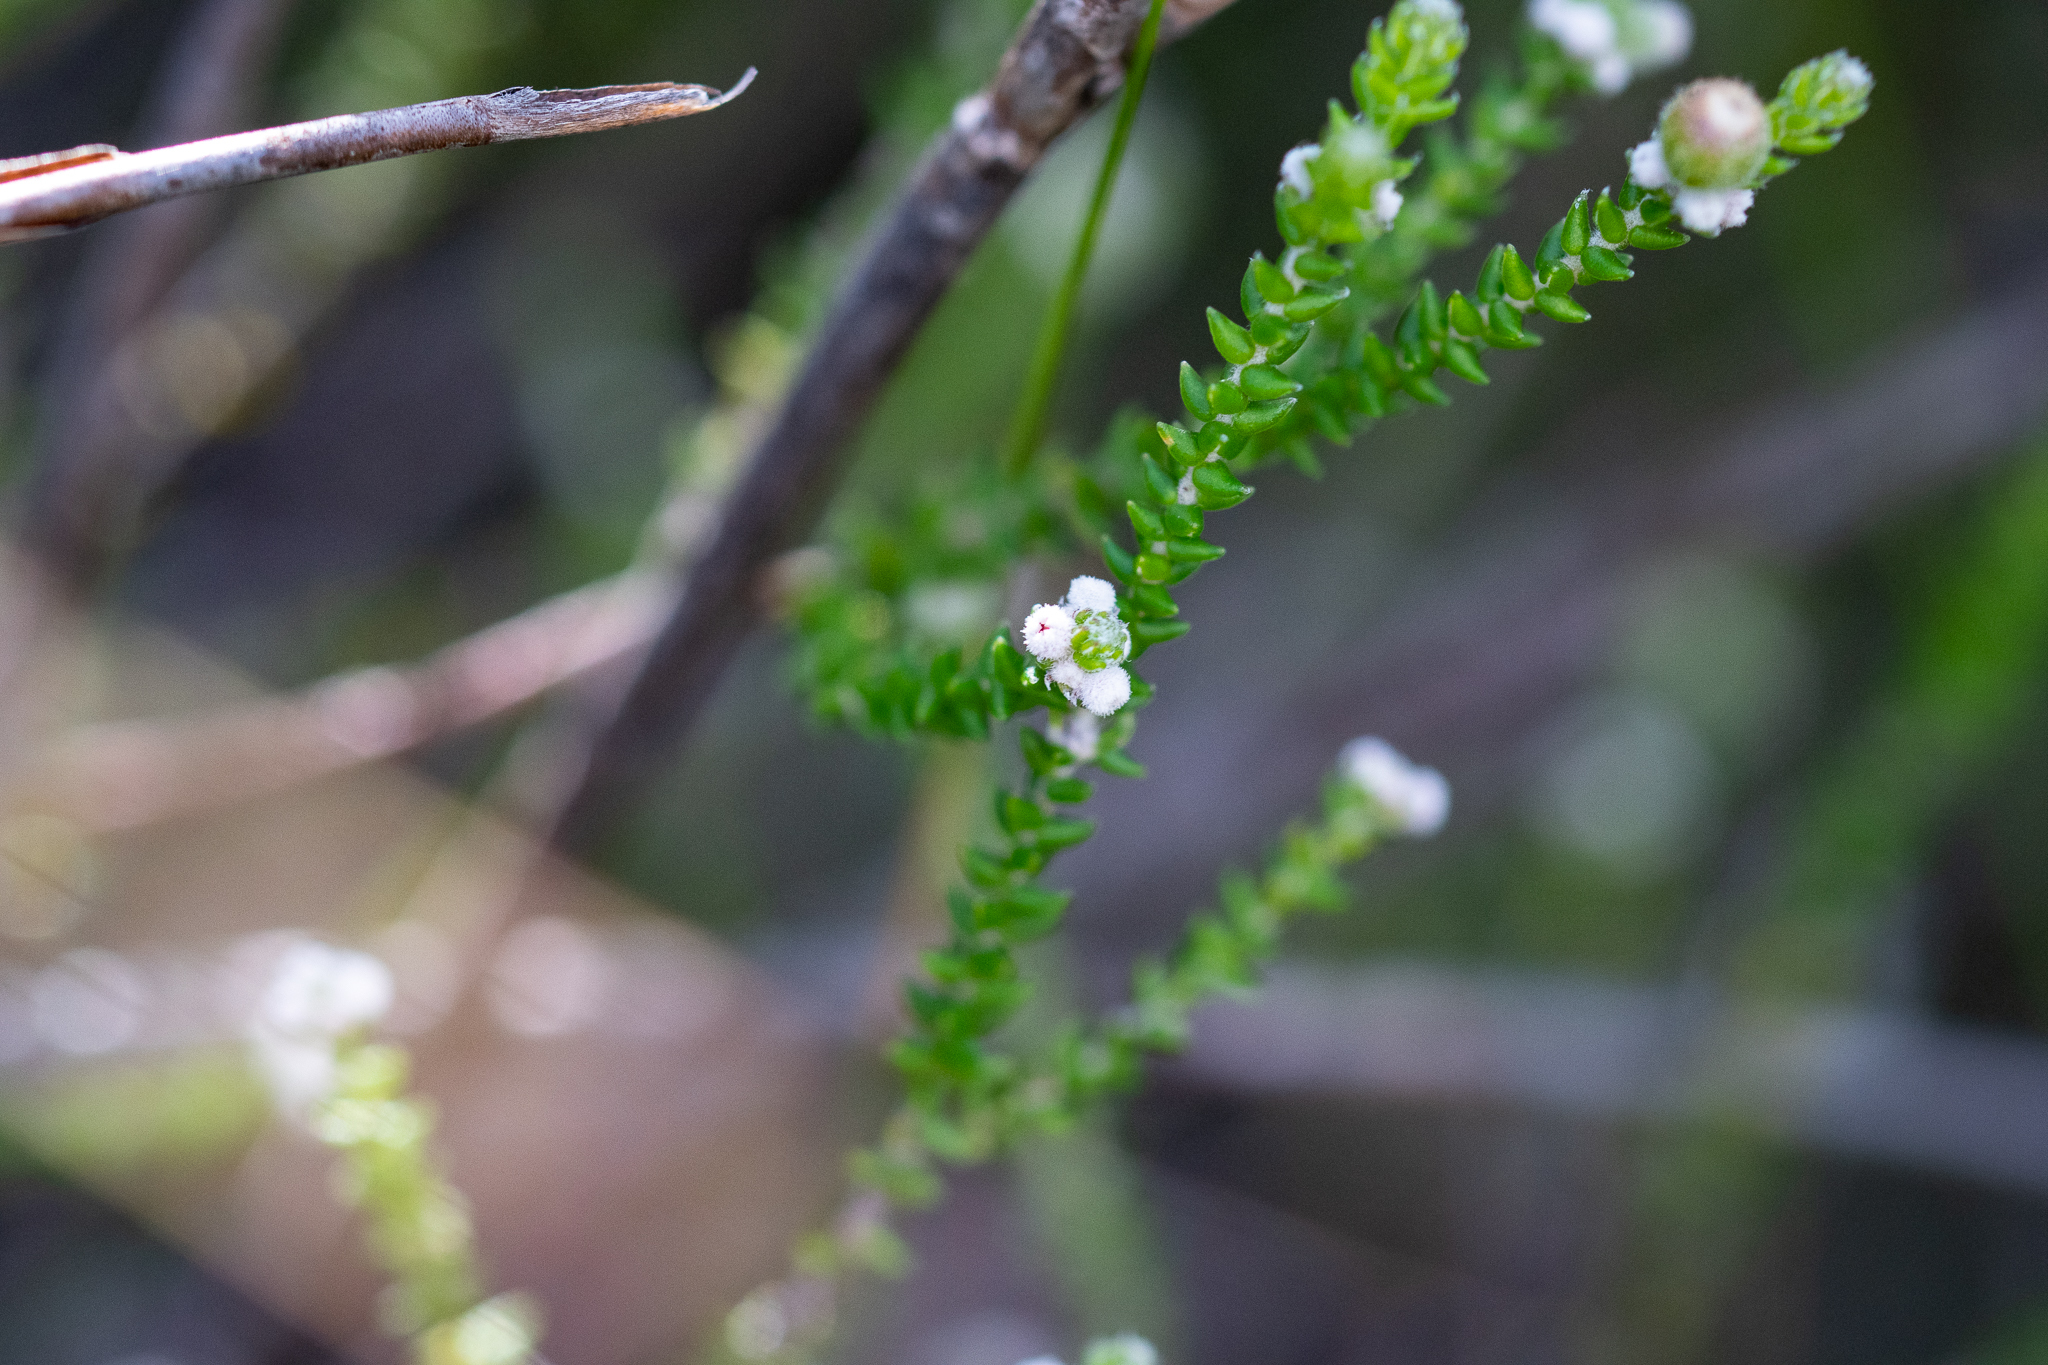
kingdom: Plantae
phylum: Tracheophyta
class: Magnoliopsida
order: Rosales
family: Rhamnaceae
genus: Phylica
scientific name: Phylica humilis
